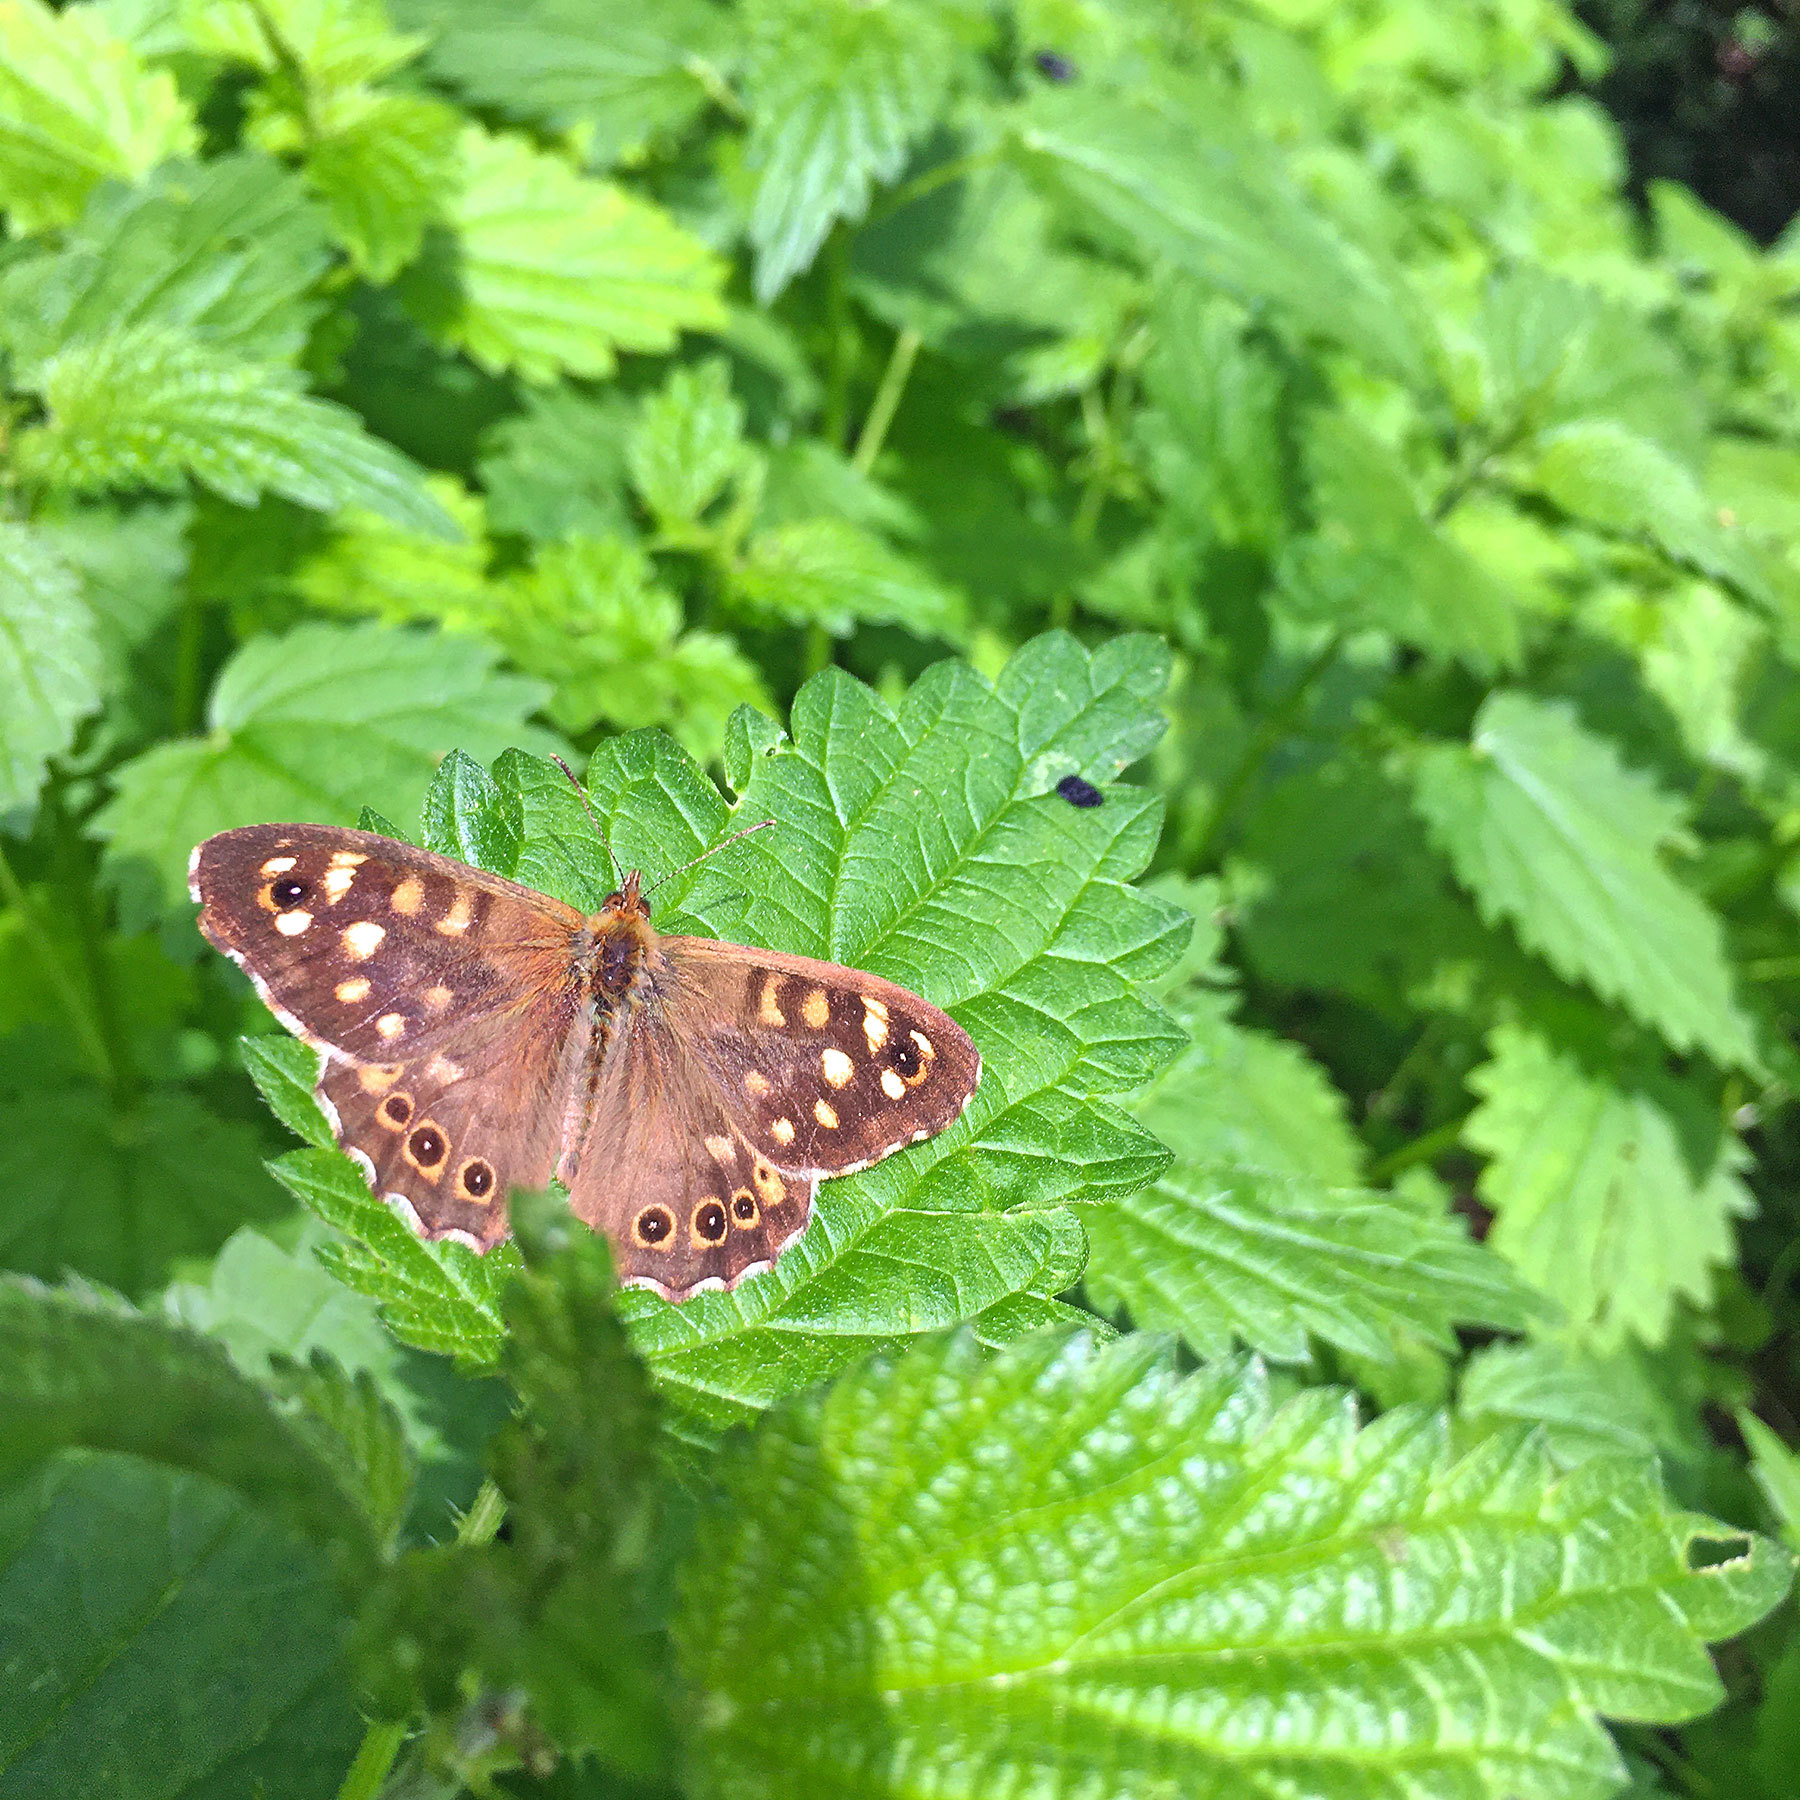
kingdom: Animalia
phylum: Arthropoda
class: Insecta
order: Lepidoptera
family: Nymphalidae
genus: Pararge
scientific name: Pararge aegeria
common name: Speckled wood
